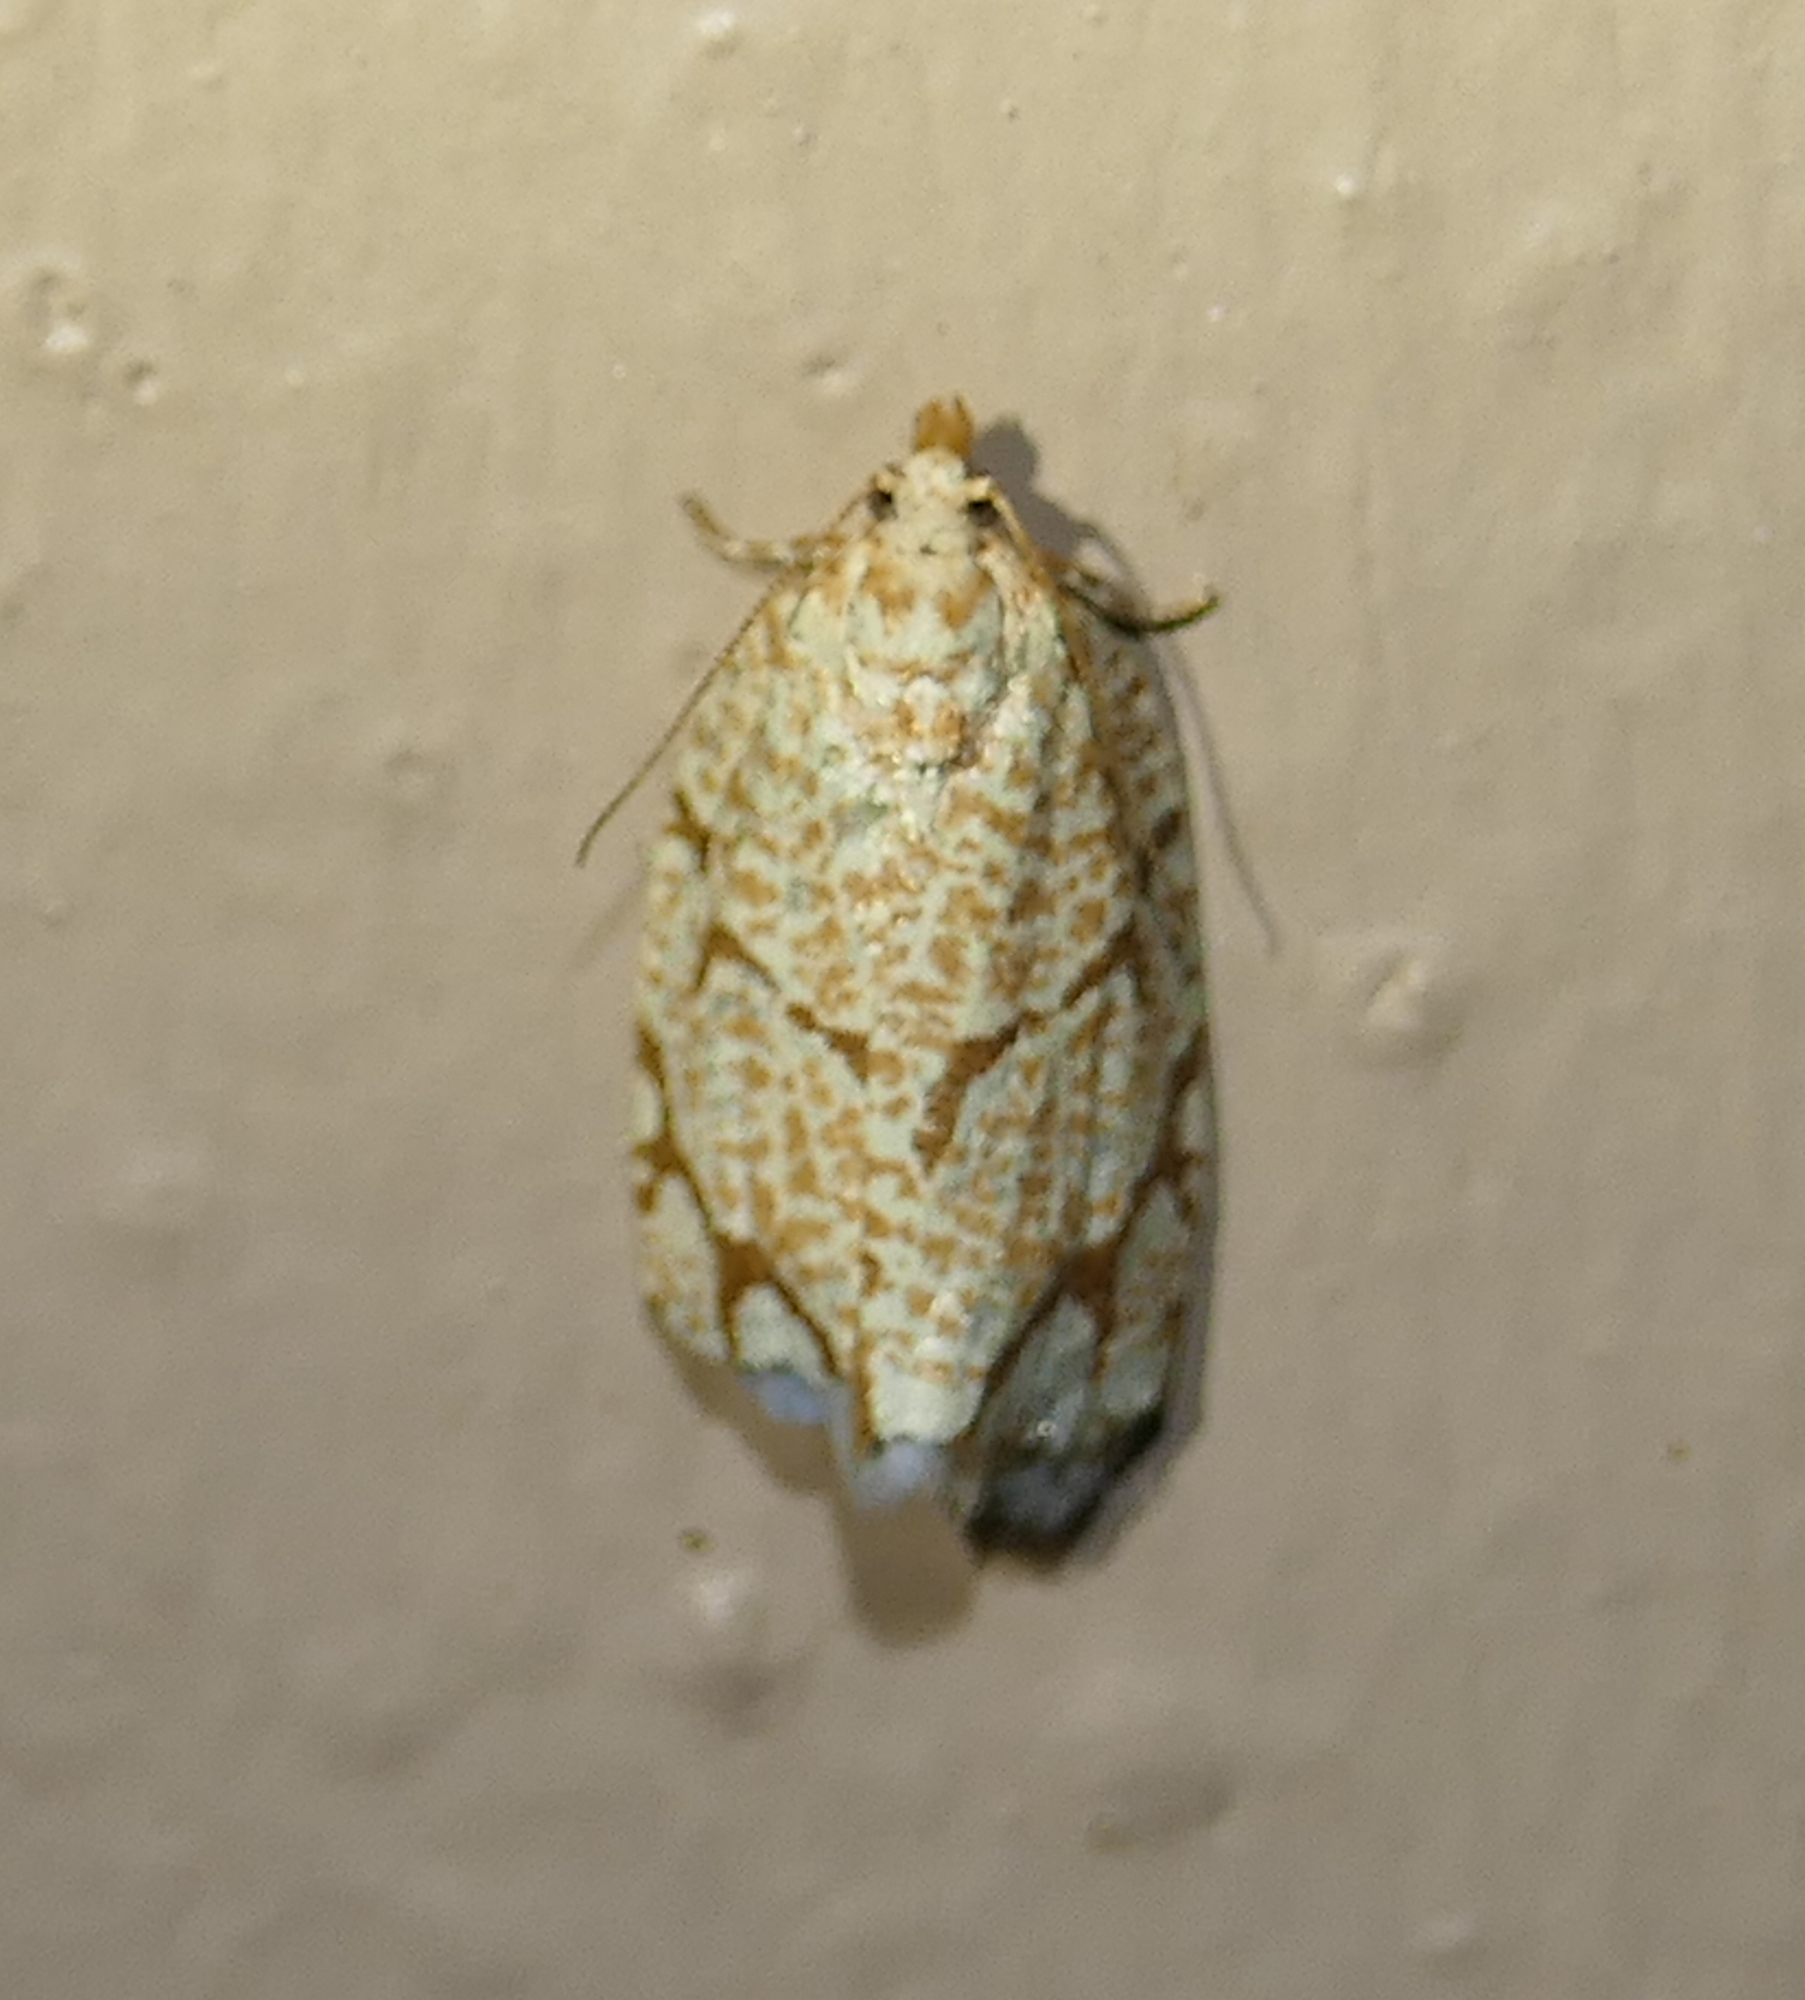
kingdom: Animalia
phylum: Arthropoda
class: Insecta
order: Lepidoptera
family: Tortricidae
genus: Argyrotaenia
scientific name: Argyrotaenia quercifoliana
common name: Yellow-winged oak leafroller moth
